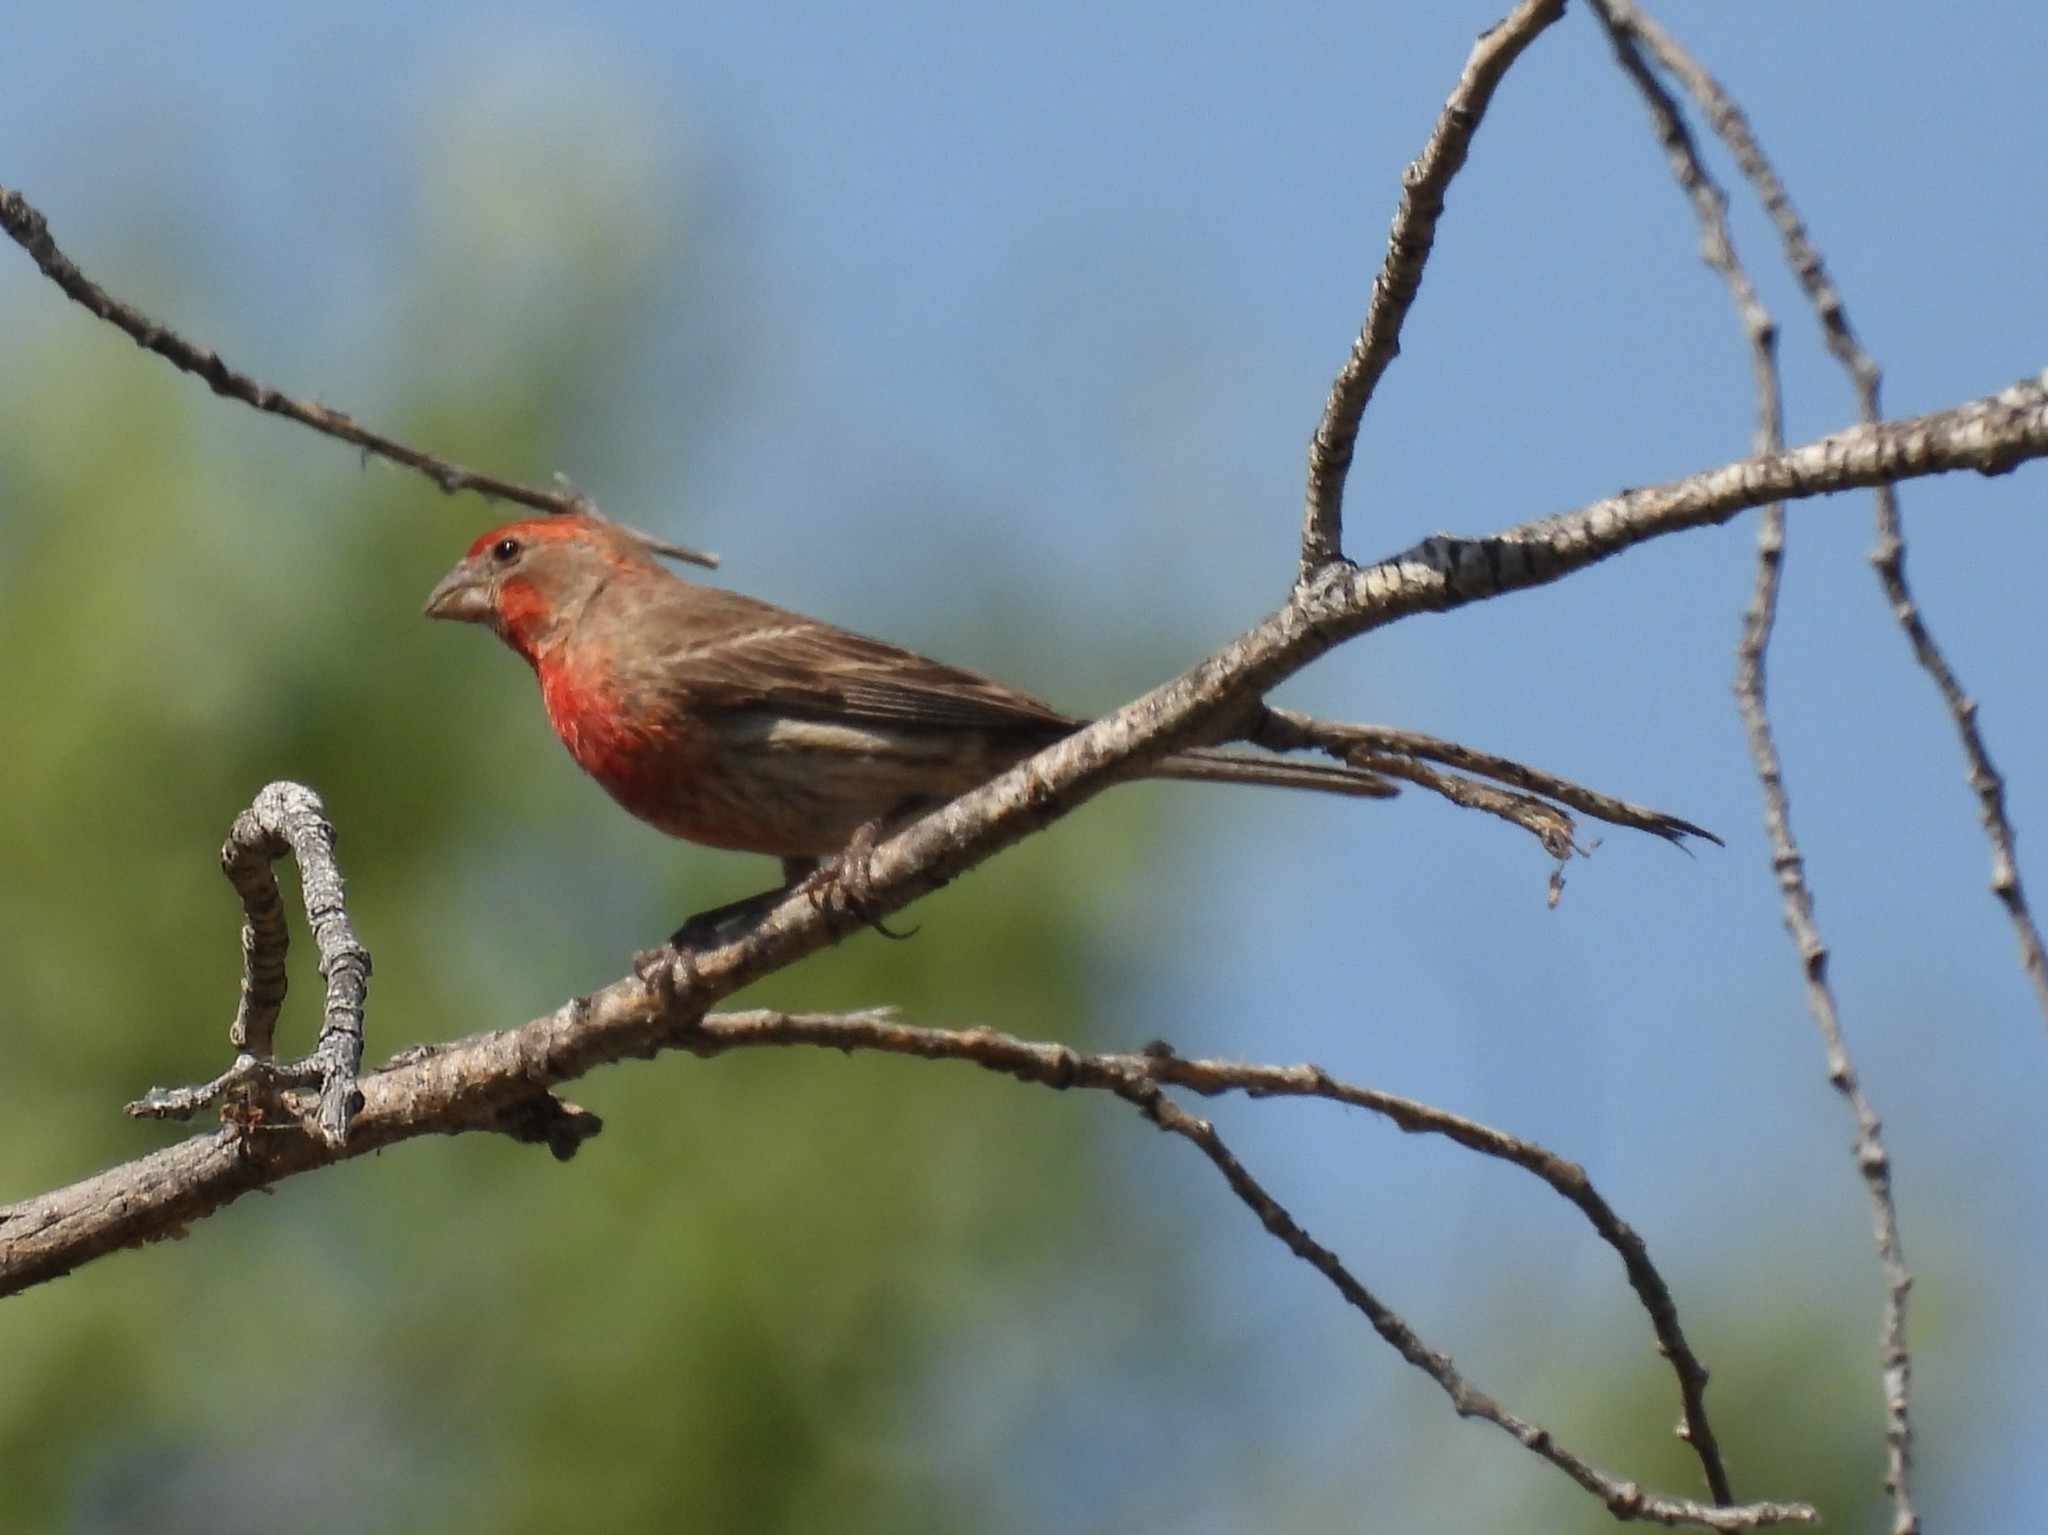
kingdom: Animalia
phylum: Chordata
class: Aves
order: Passeriformes
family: Fringillidae
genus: Haemorhous
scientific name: Haemorhous mexicanus
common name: House finch
